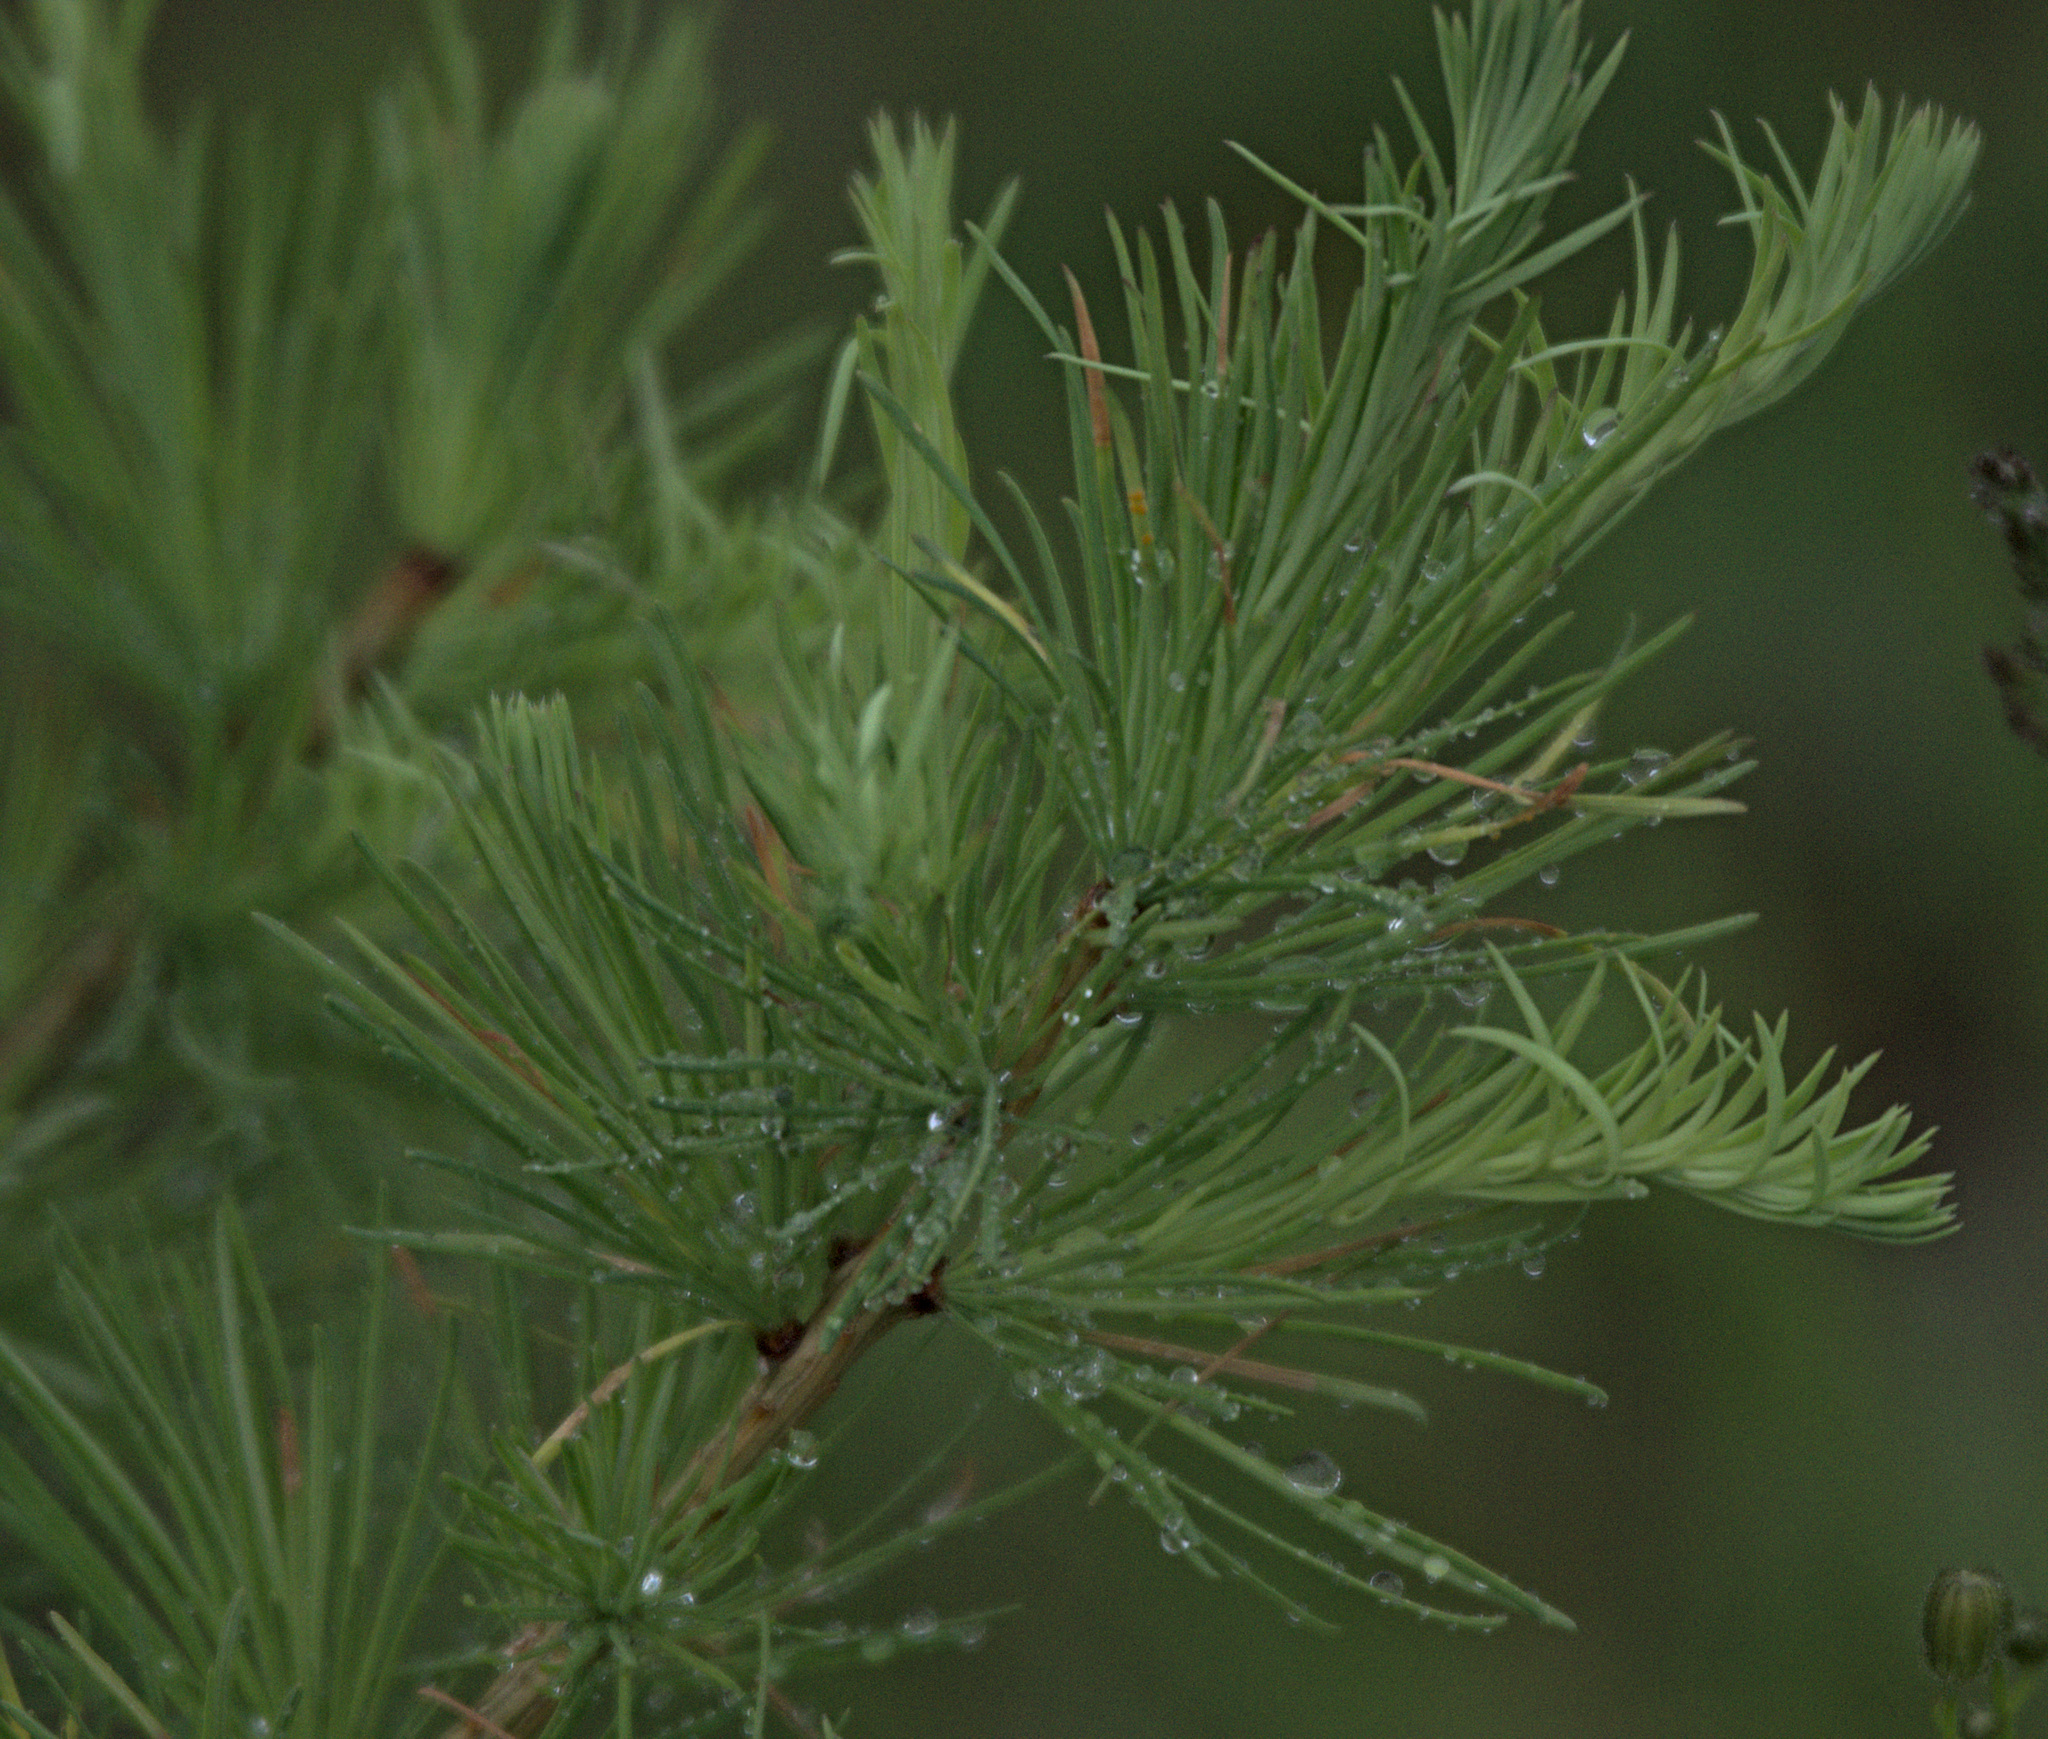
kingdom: Plantae
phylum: Tracheophyta
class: Pinopsida
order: Pinales
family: Pinaceae
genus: Larix
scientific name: Larix sibirica
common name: Siberian larch
